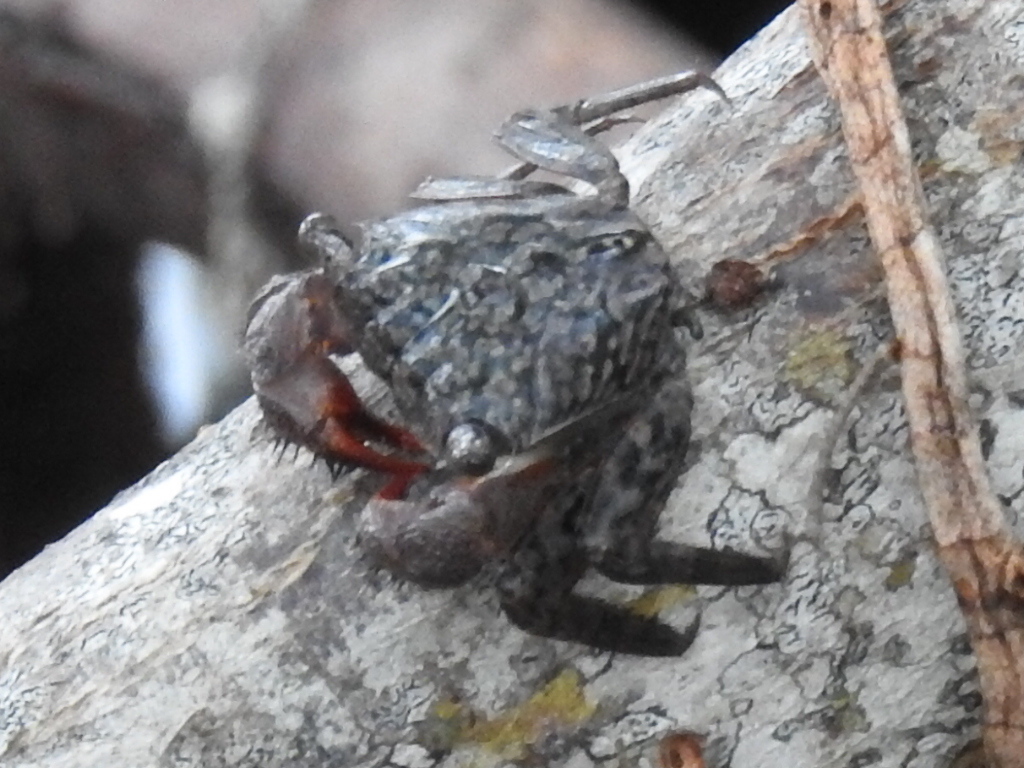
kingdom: Animalia
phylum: Arthropoda
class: Malacostraca
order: Decapoda
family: Sesarmidae
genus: Aratus
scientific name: Aratus pisonii
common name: Mangrove crab
